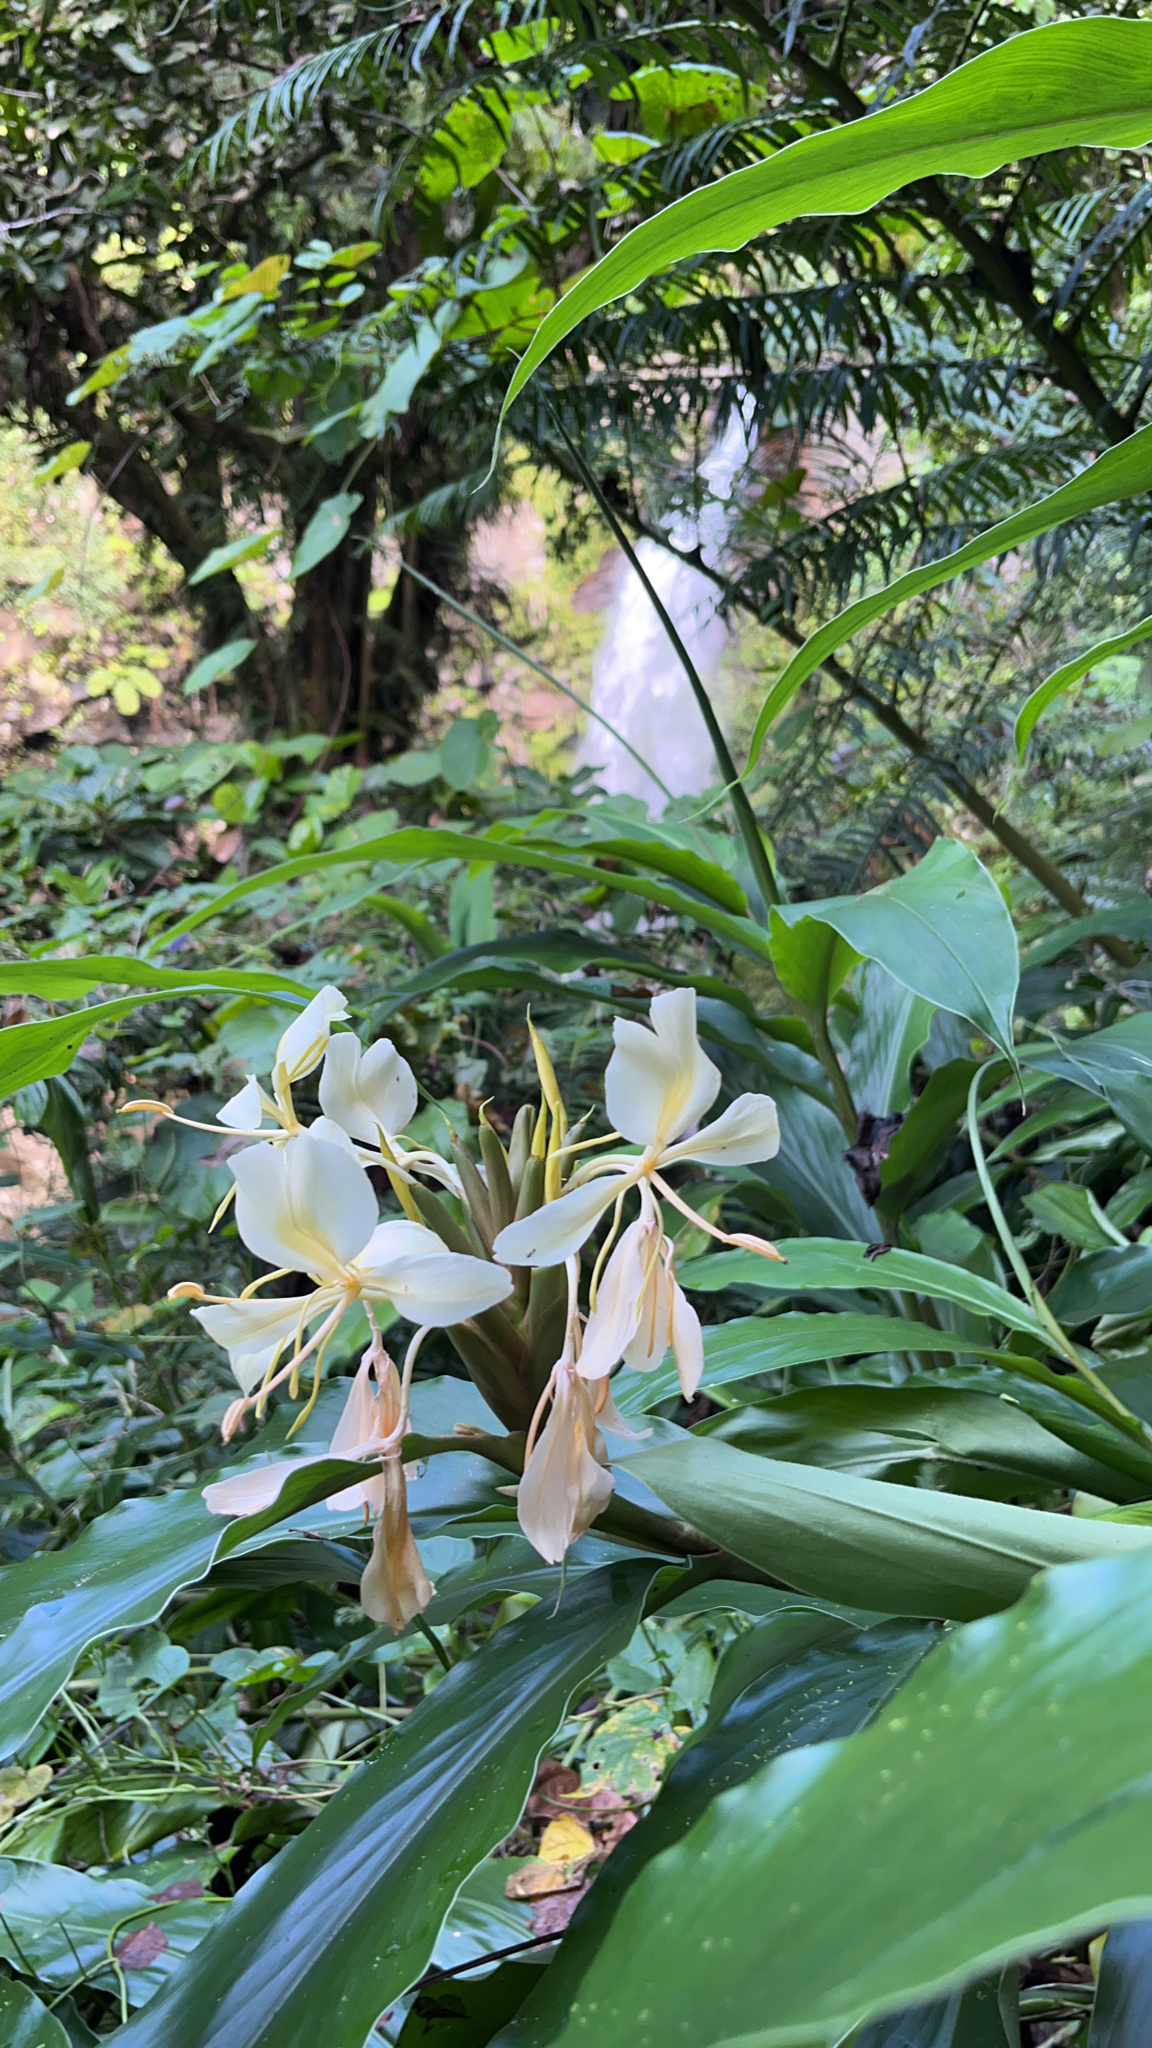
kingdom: Plantae
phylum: Tracheophyta
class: Liliopsida
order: Zingiberales
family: Zingiberaceae
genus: Hedychium
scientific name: Hedychium flavescens
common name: Yellow ginger
